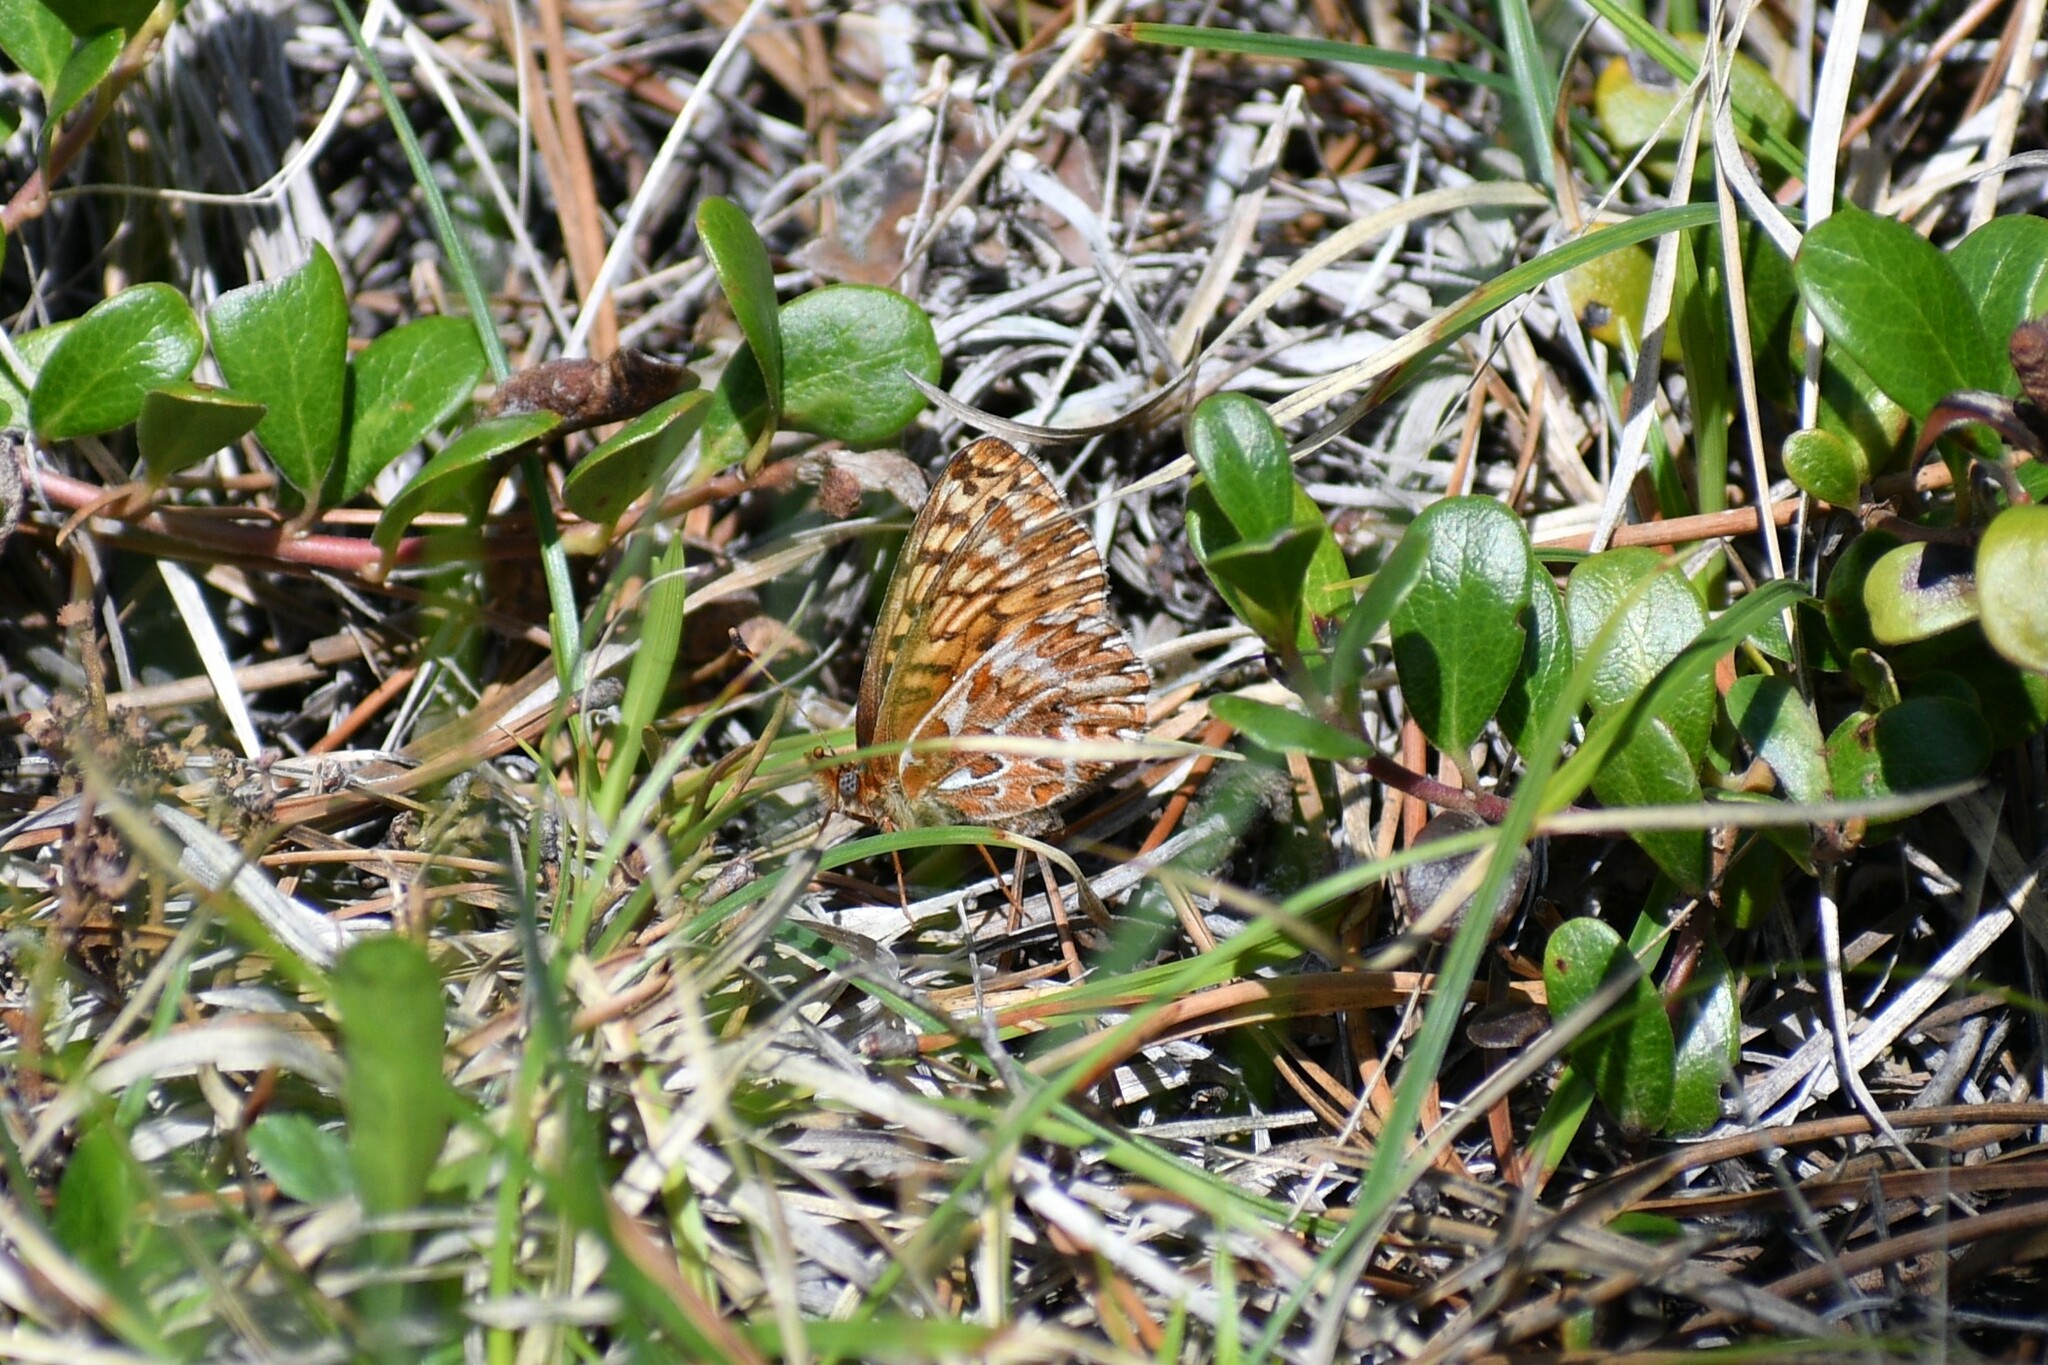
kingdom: Animalia
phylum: Arthropoda
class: Insecta
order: Lepidoptera
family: Nymphalidae
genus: Boloria
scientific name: Boloria freija
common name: Freija fritillary
